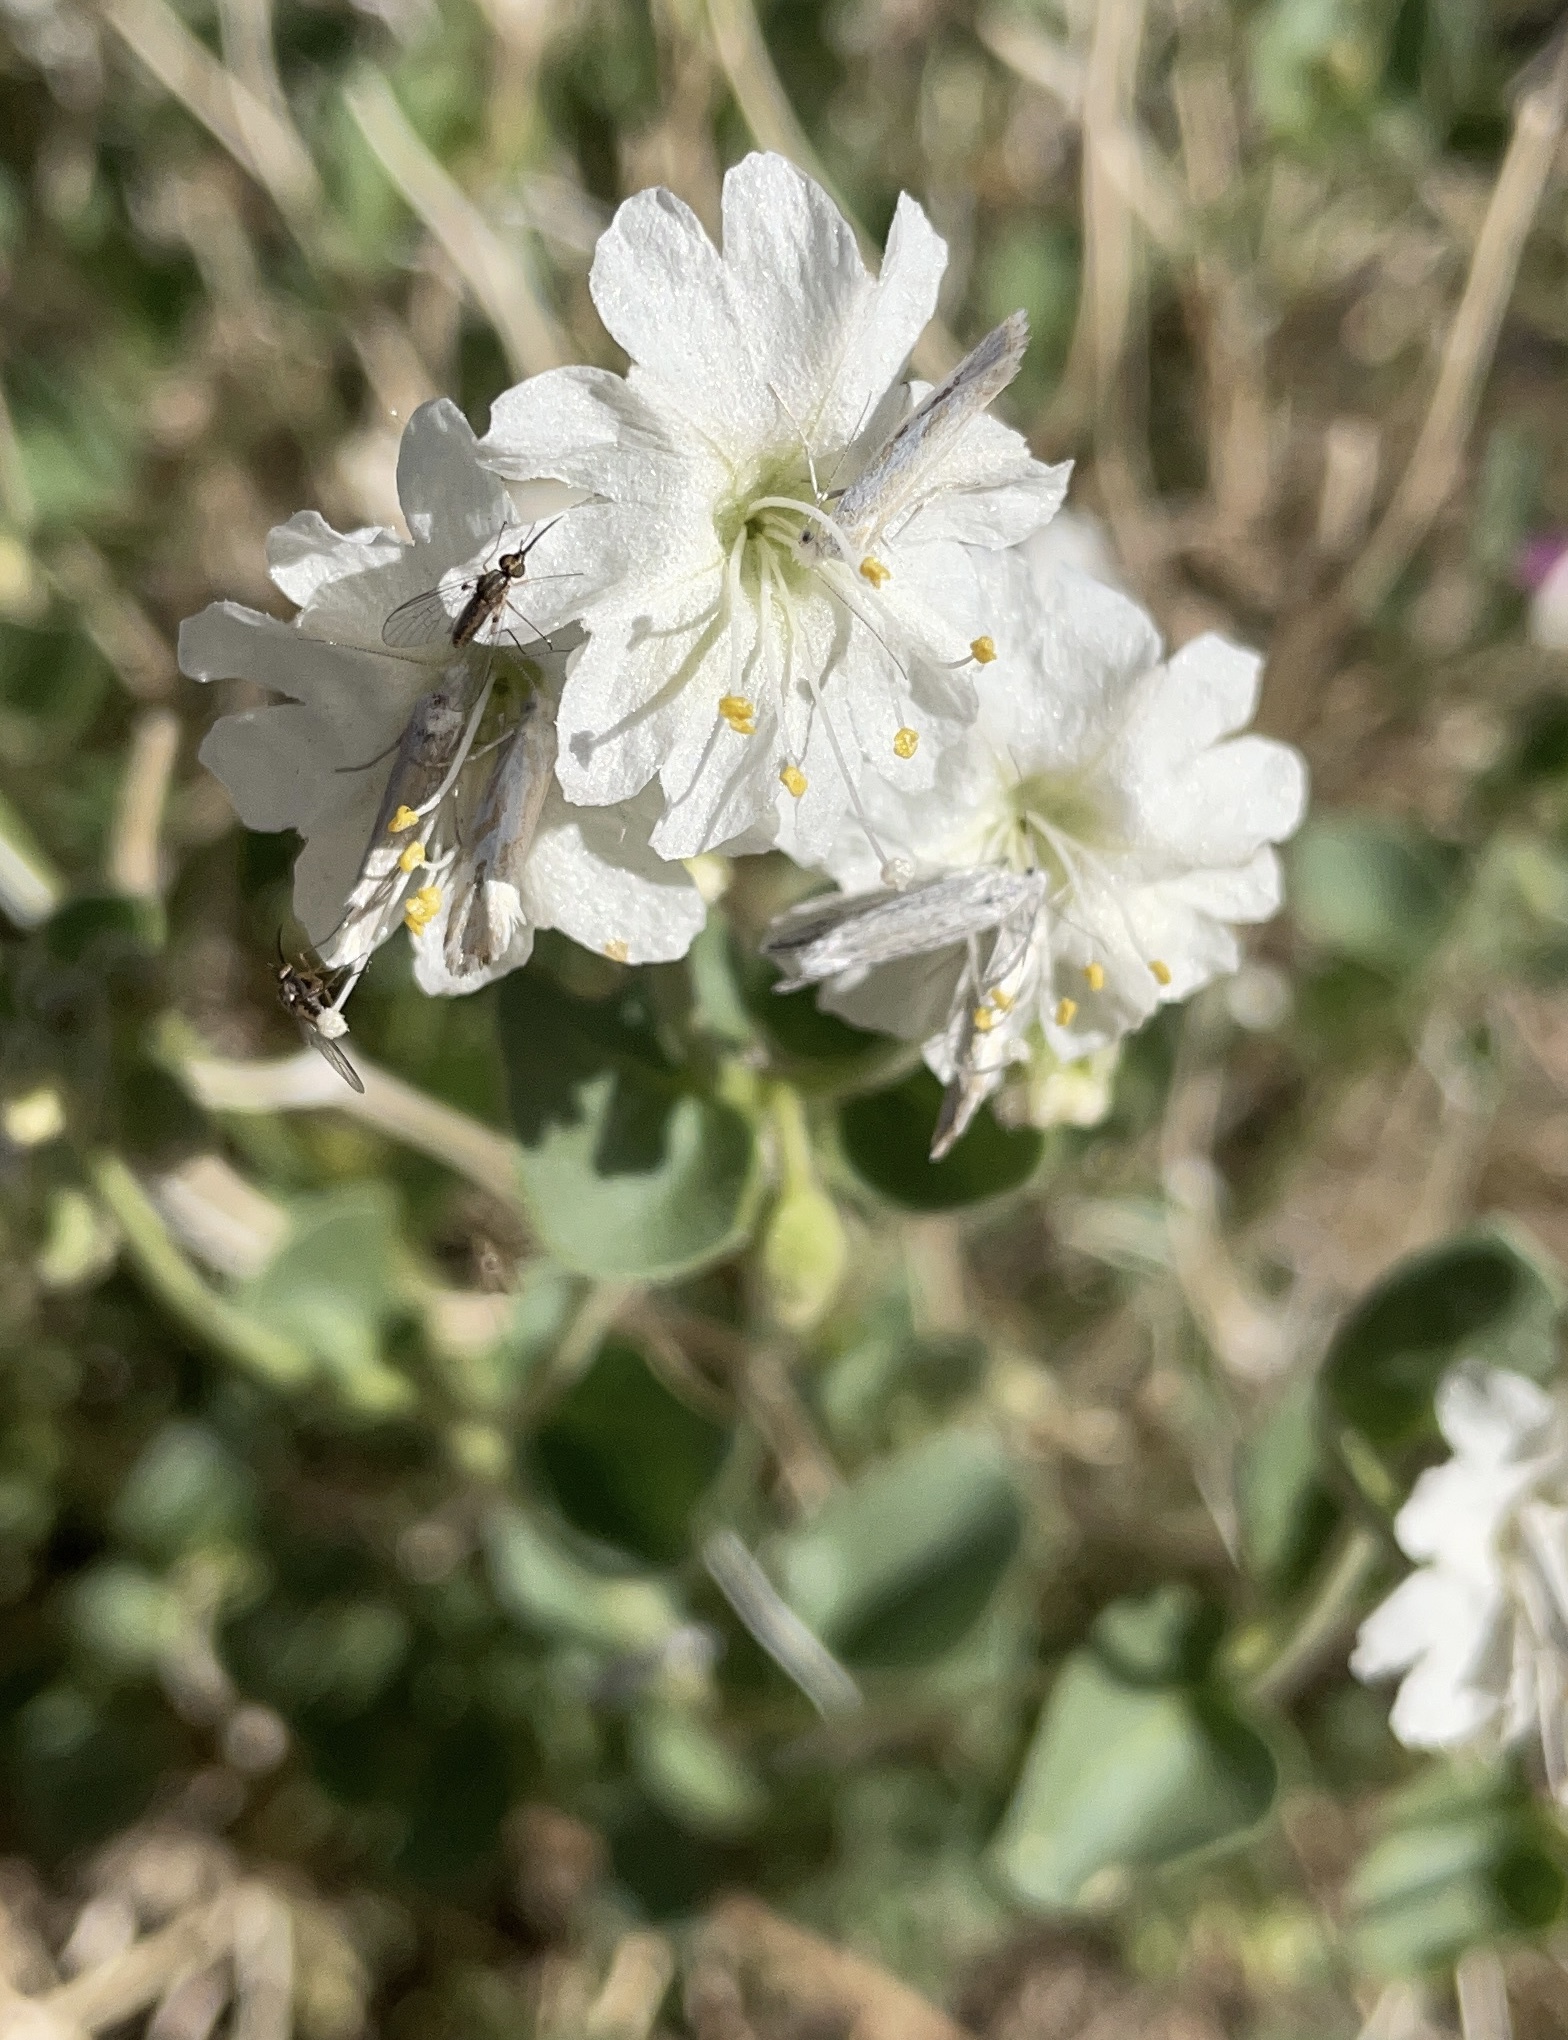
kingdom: Plantae
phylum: Tracheophyta
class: Magnoliopsida
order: Caryophyllales
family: Nyctaginaceae
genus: Mirabilis
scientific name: Mirabilis laevis
